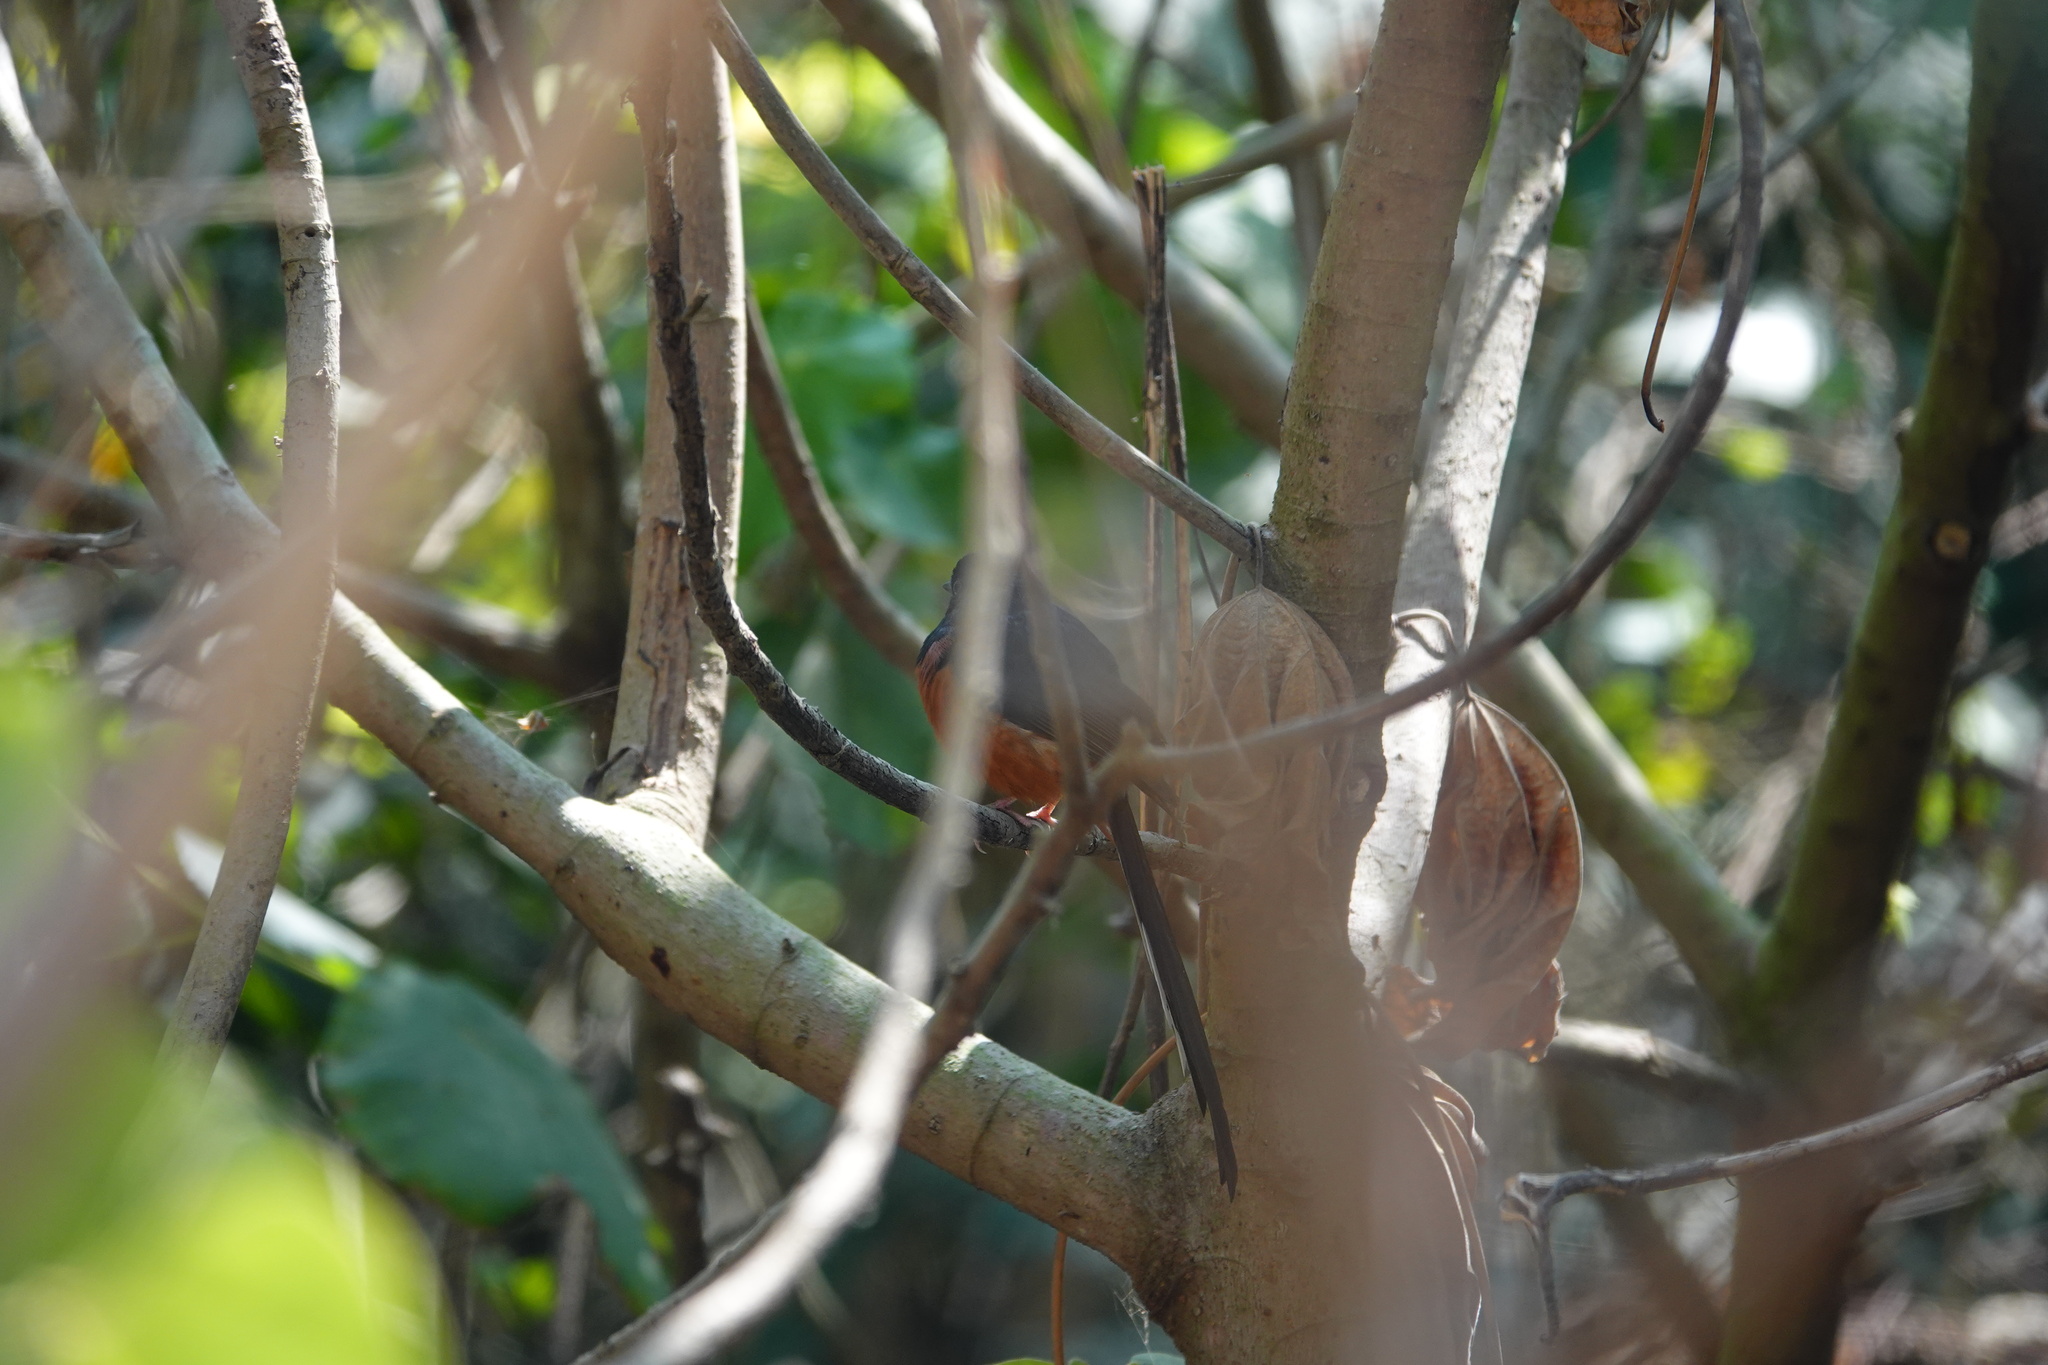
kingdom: Animalia
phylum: Chordata
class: Aves
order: Passeriformes
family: Muscicapidae
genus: Copsychus
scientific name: Copsychus malabaricus
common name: White-rumped shama
